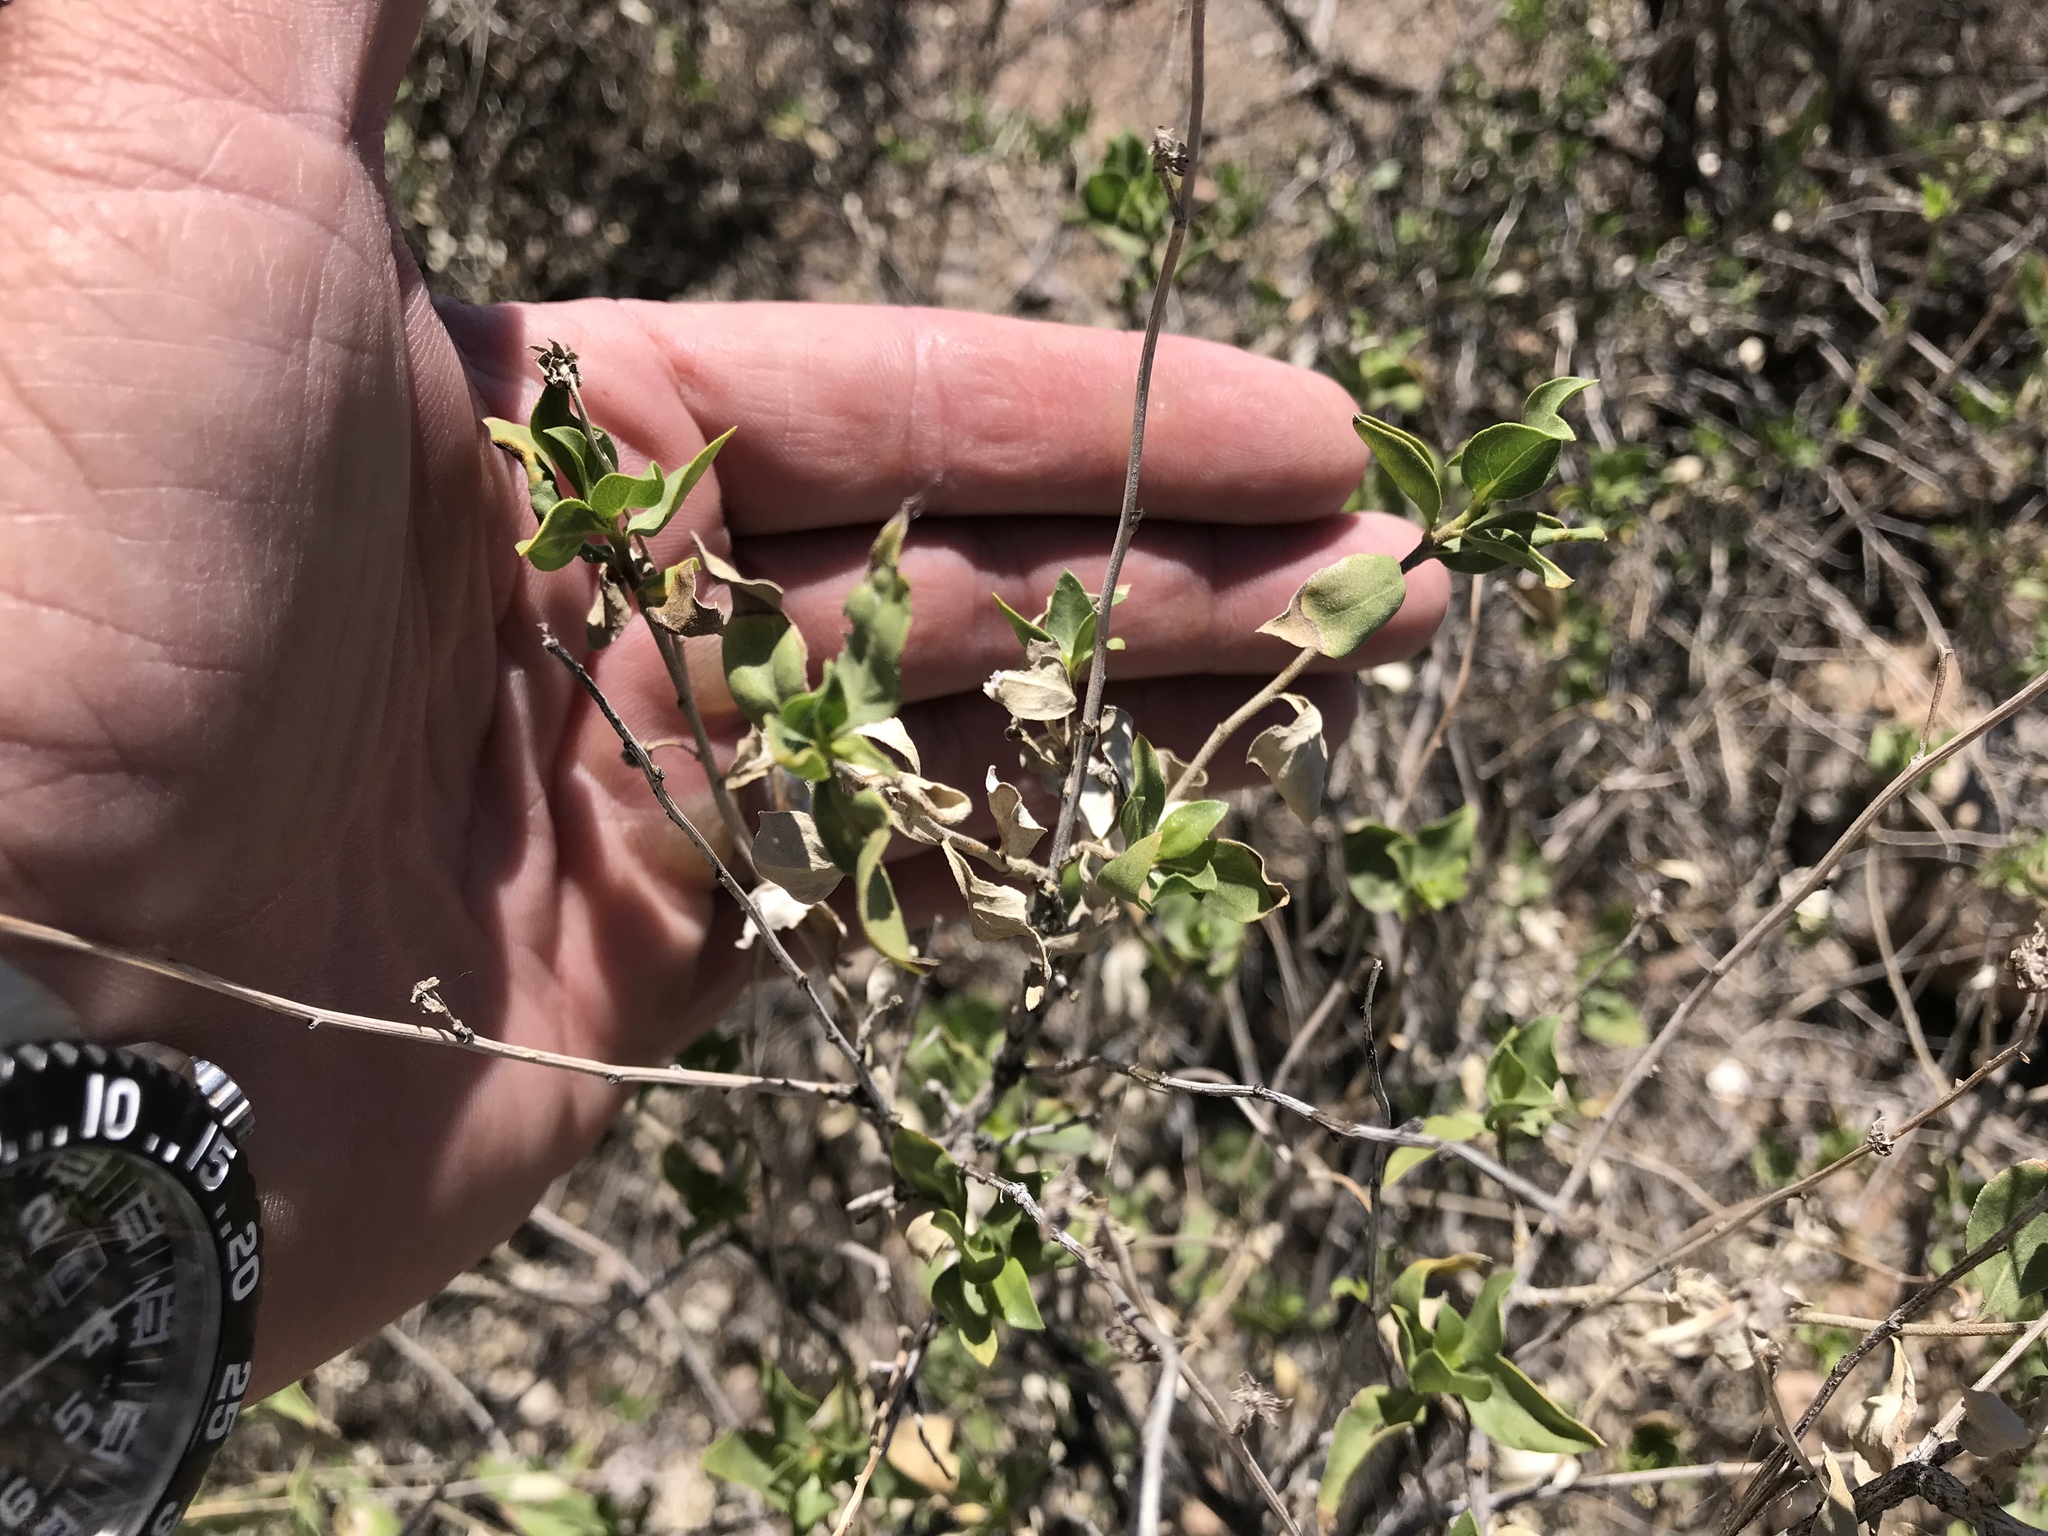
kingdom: Plantae
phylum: Tracheophyta
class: Magnoliopsida
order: Asterales
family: Asteraceae
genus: Flourensia
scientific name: Flourensia cernua
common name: Varnishbush
